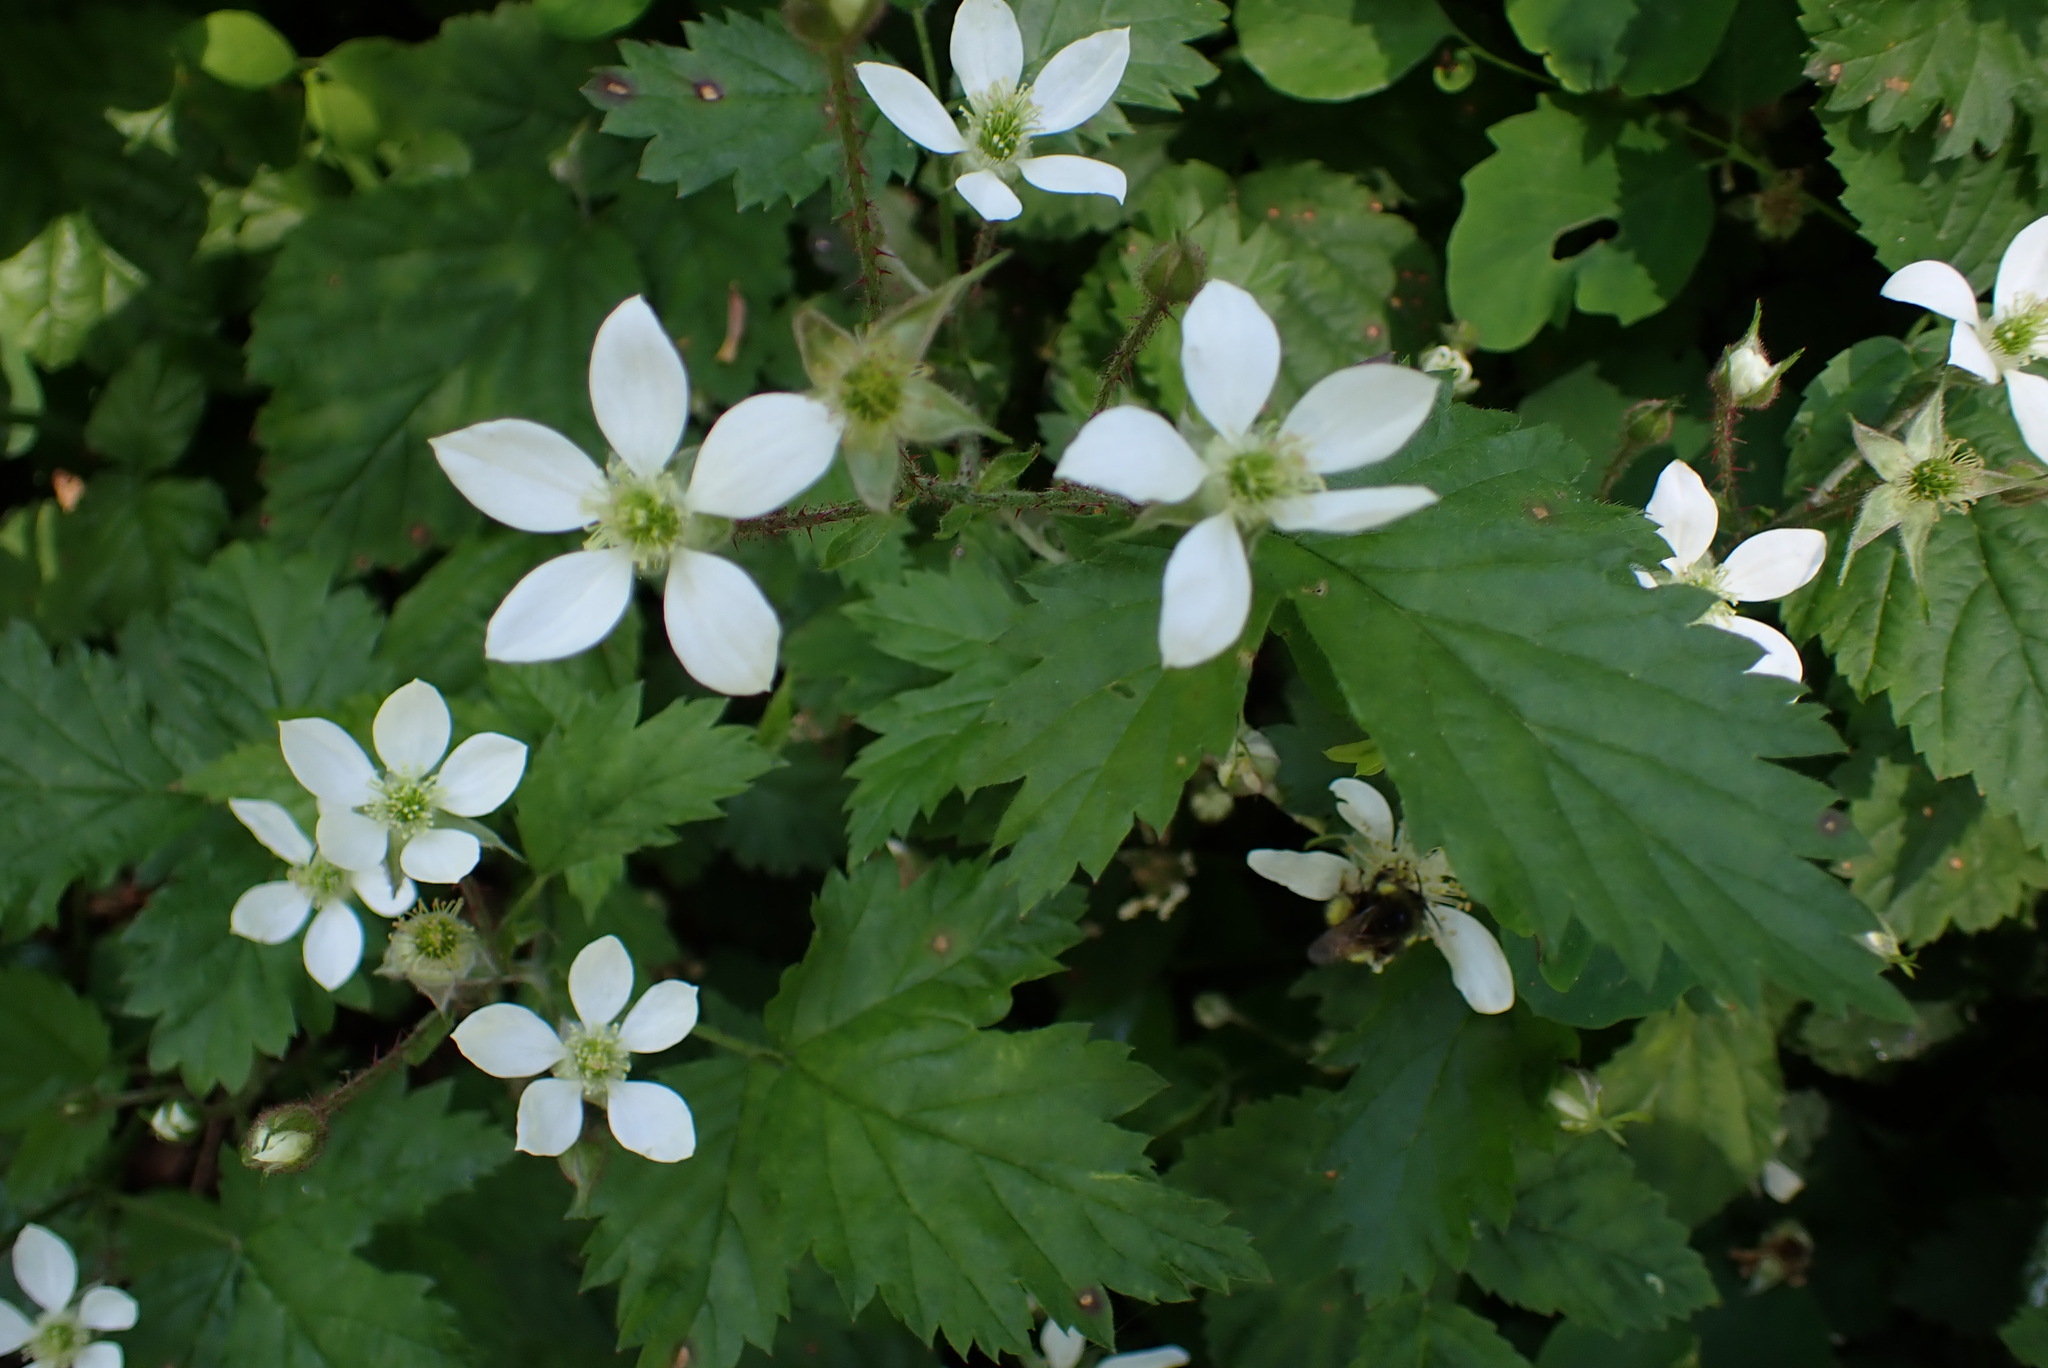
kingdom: Plantae
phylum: Tracheophyta
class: Magnoliopsida
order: Rosales
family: Rosaceae
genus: Rubus
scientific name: Rubus ursinus
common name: Pacific blackberry
